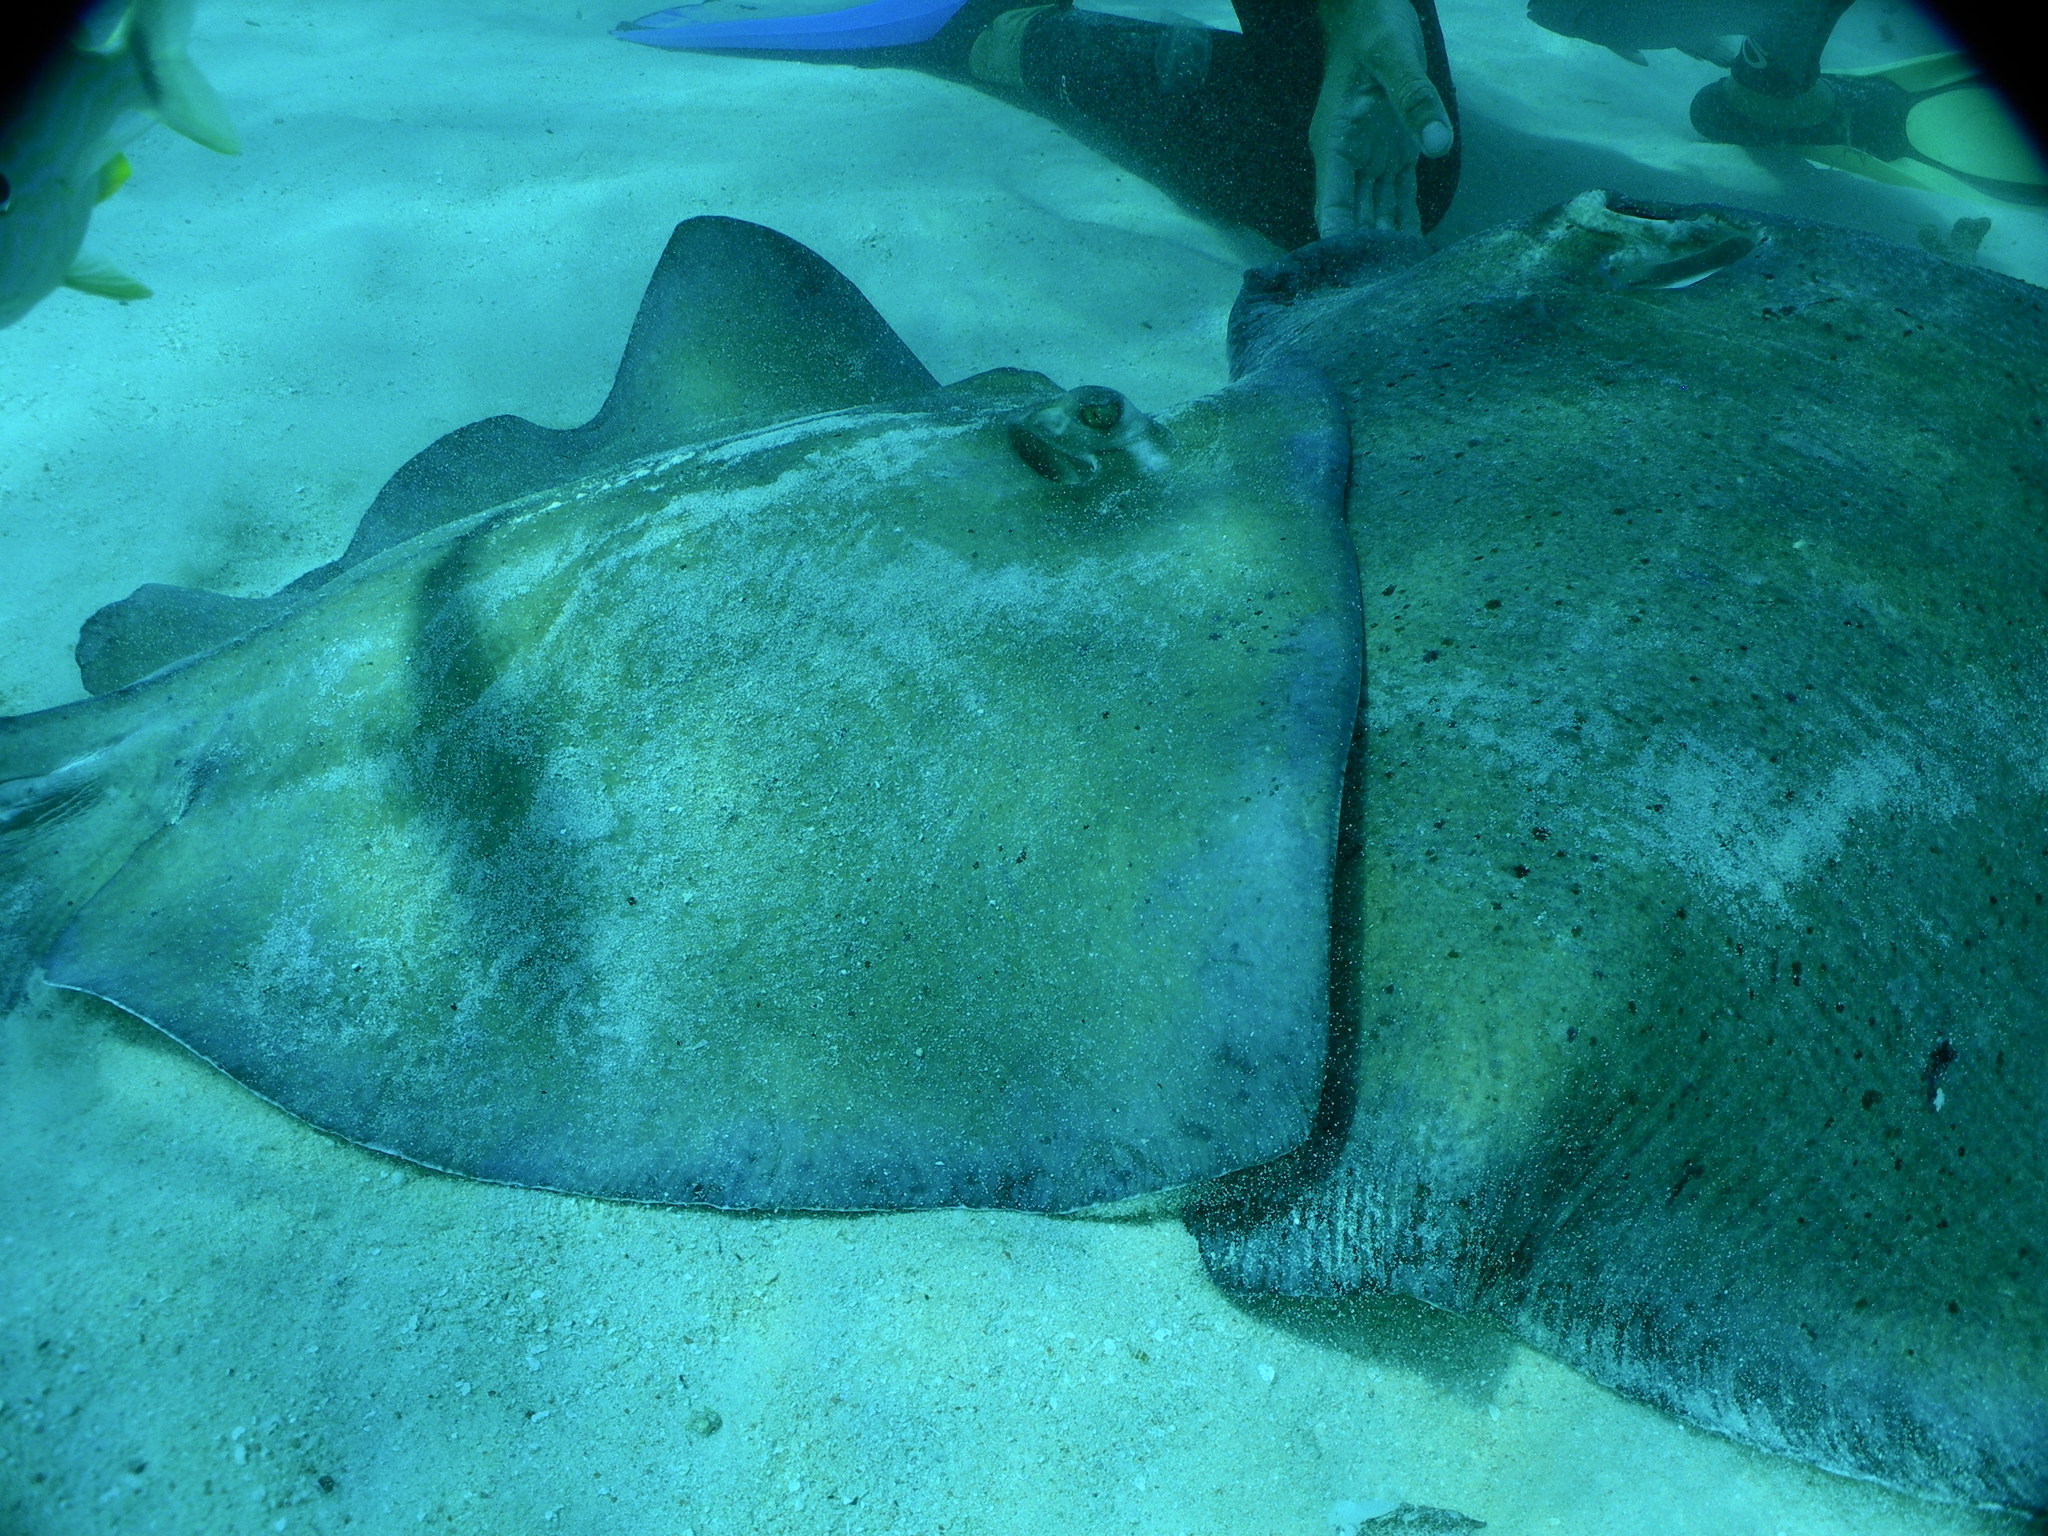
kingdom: Animalia
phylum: Chordata
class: Elasmobranchii
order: Myliobatiformes
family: Dasyatidae
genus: Hypanus
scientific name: Hypanus americanus
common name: Southern stingray
